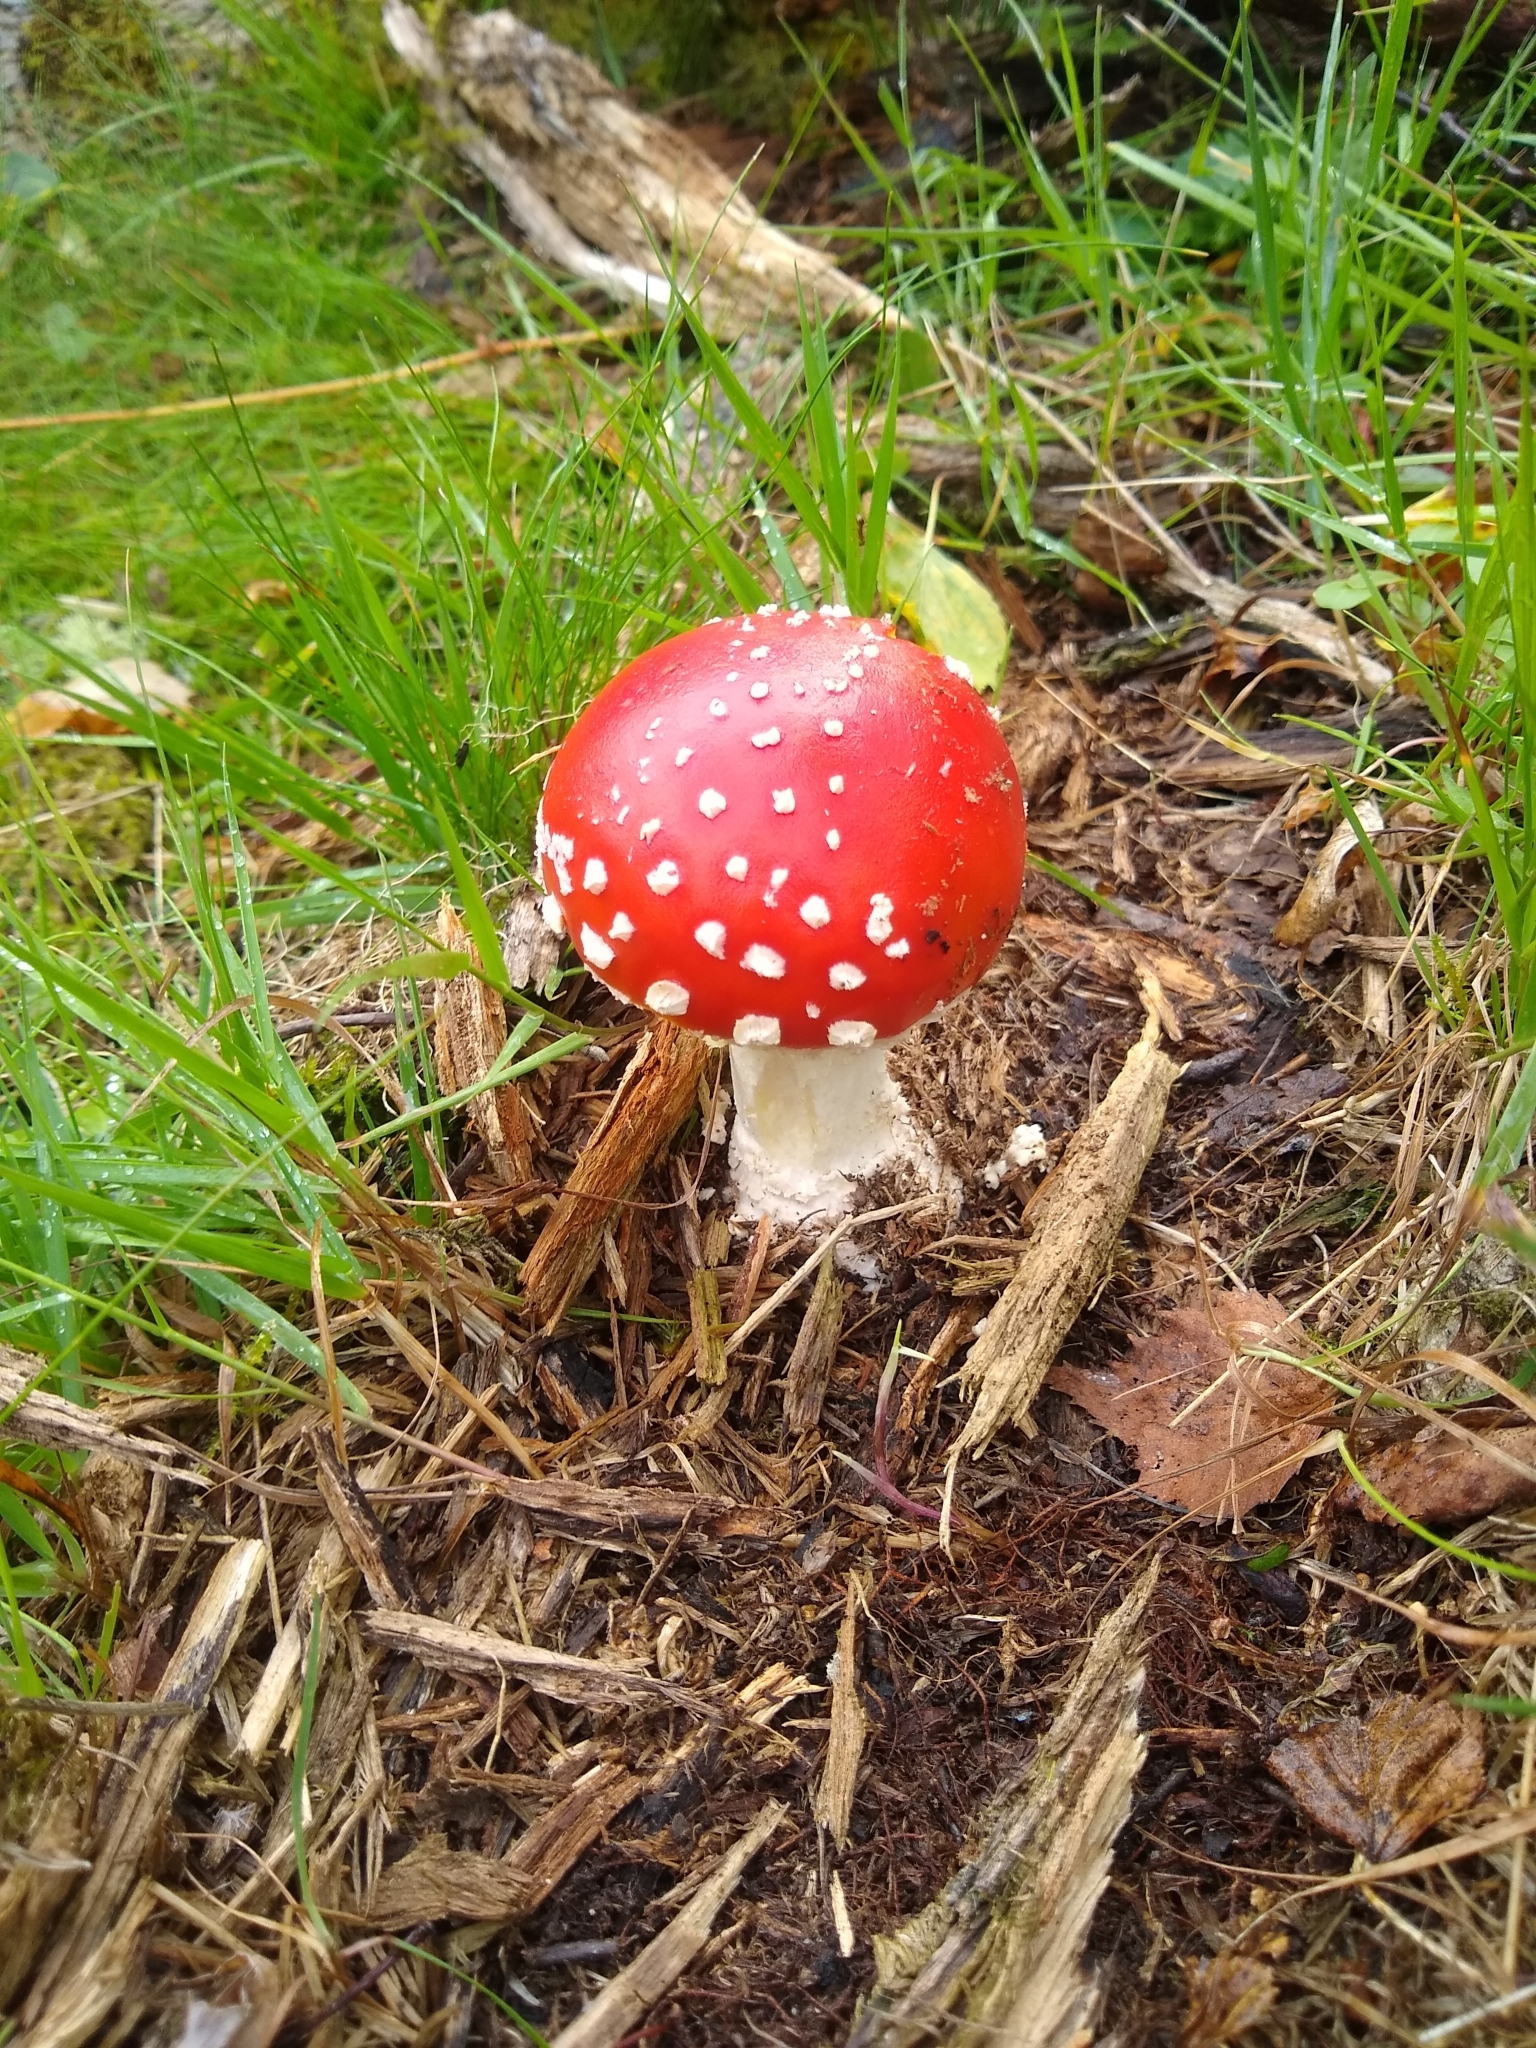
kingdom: Fungi
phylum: Basidiomycota
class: Agaricomycetes
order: Agaricales
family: Amanitaceae
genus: Amanita
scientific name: Amanita muscaria
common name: Fly agaric
